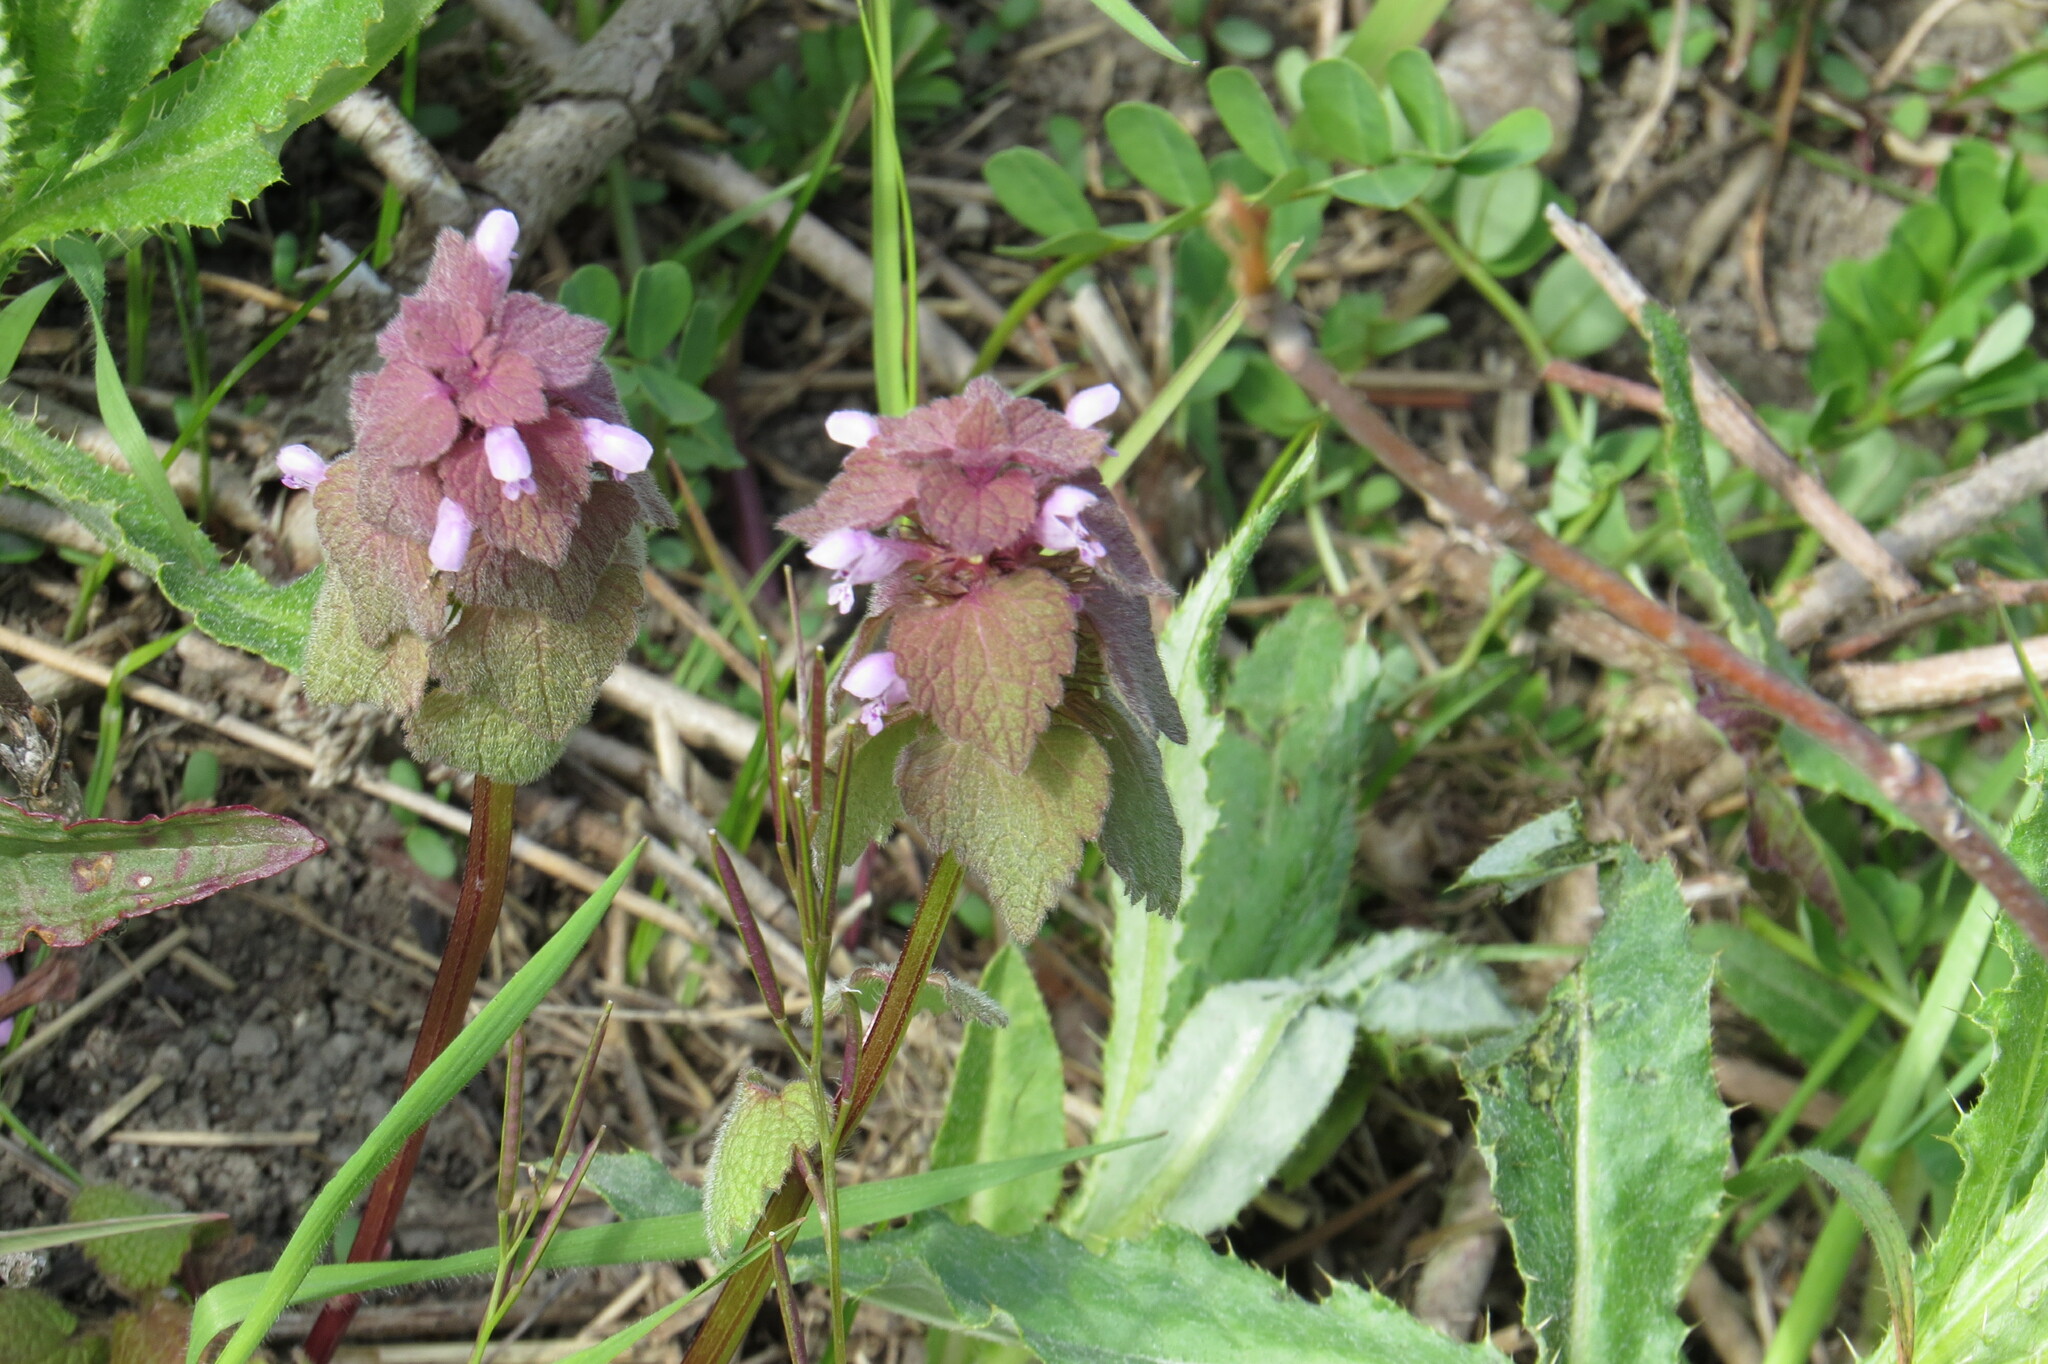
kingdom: Plantae
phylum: Tracheophyta
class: Magnoliopsida
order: Lamiales
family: Lamiaceae
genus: Lamium
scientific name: Lamium purpureum
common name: Red dead-nettle
